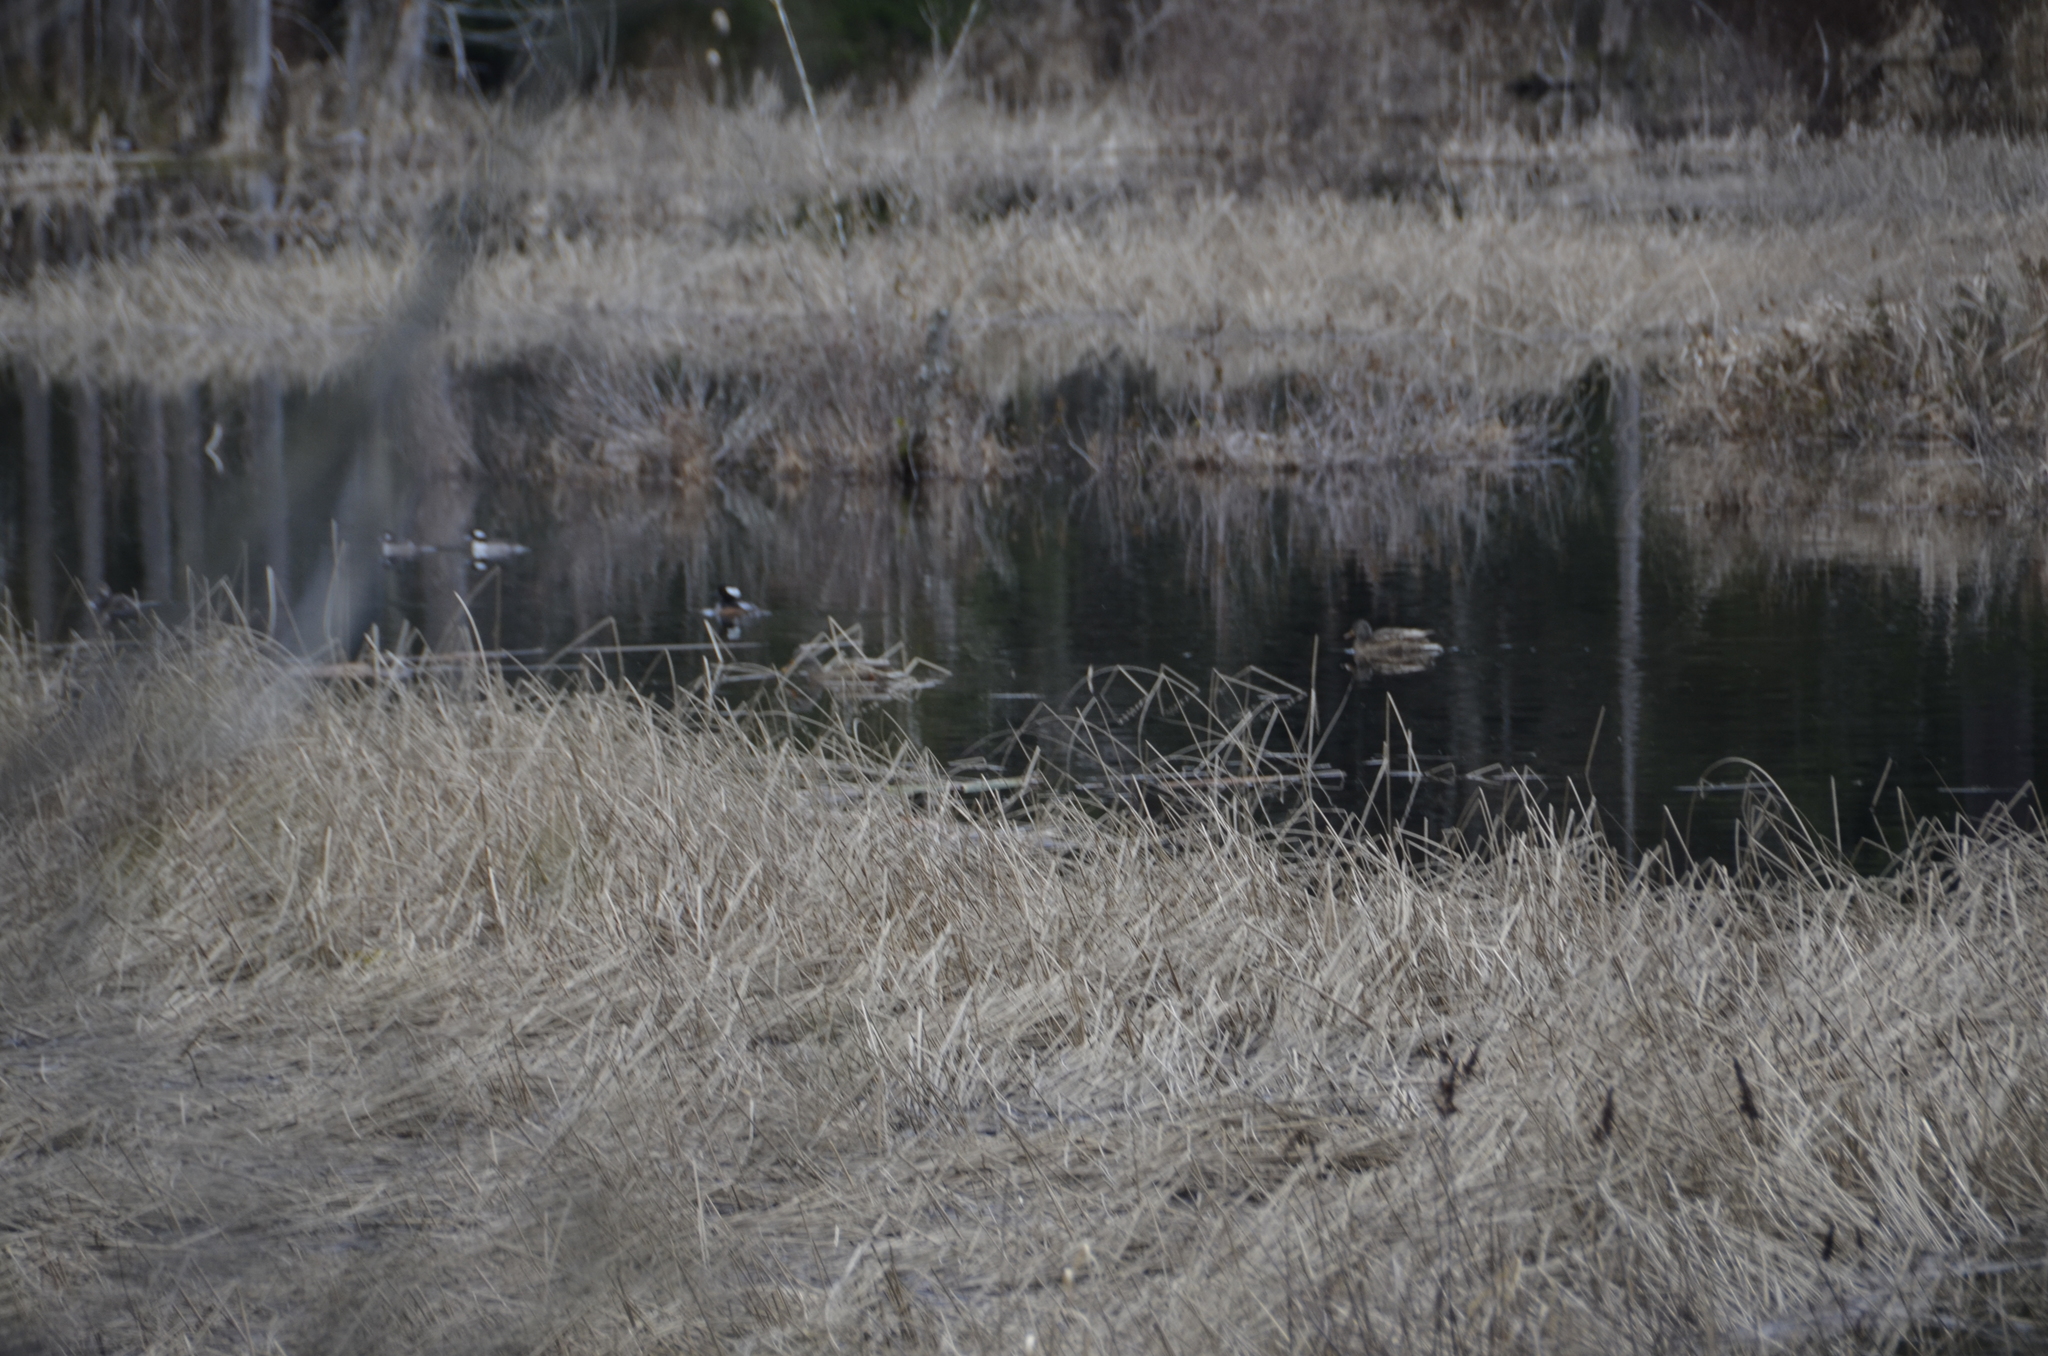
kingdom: Animalia
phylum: Chordata
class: Aves
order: Anseriformes
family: Anatidae
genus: Lophodytes
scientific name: Lophodytes cucullatus
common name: Hooded merganser
